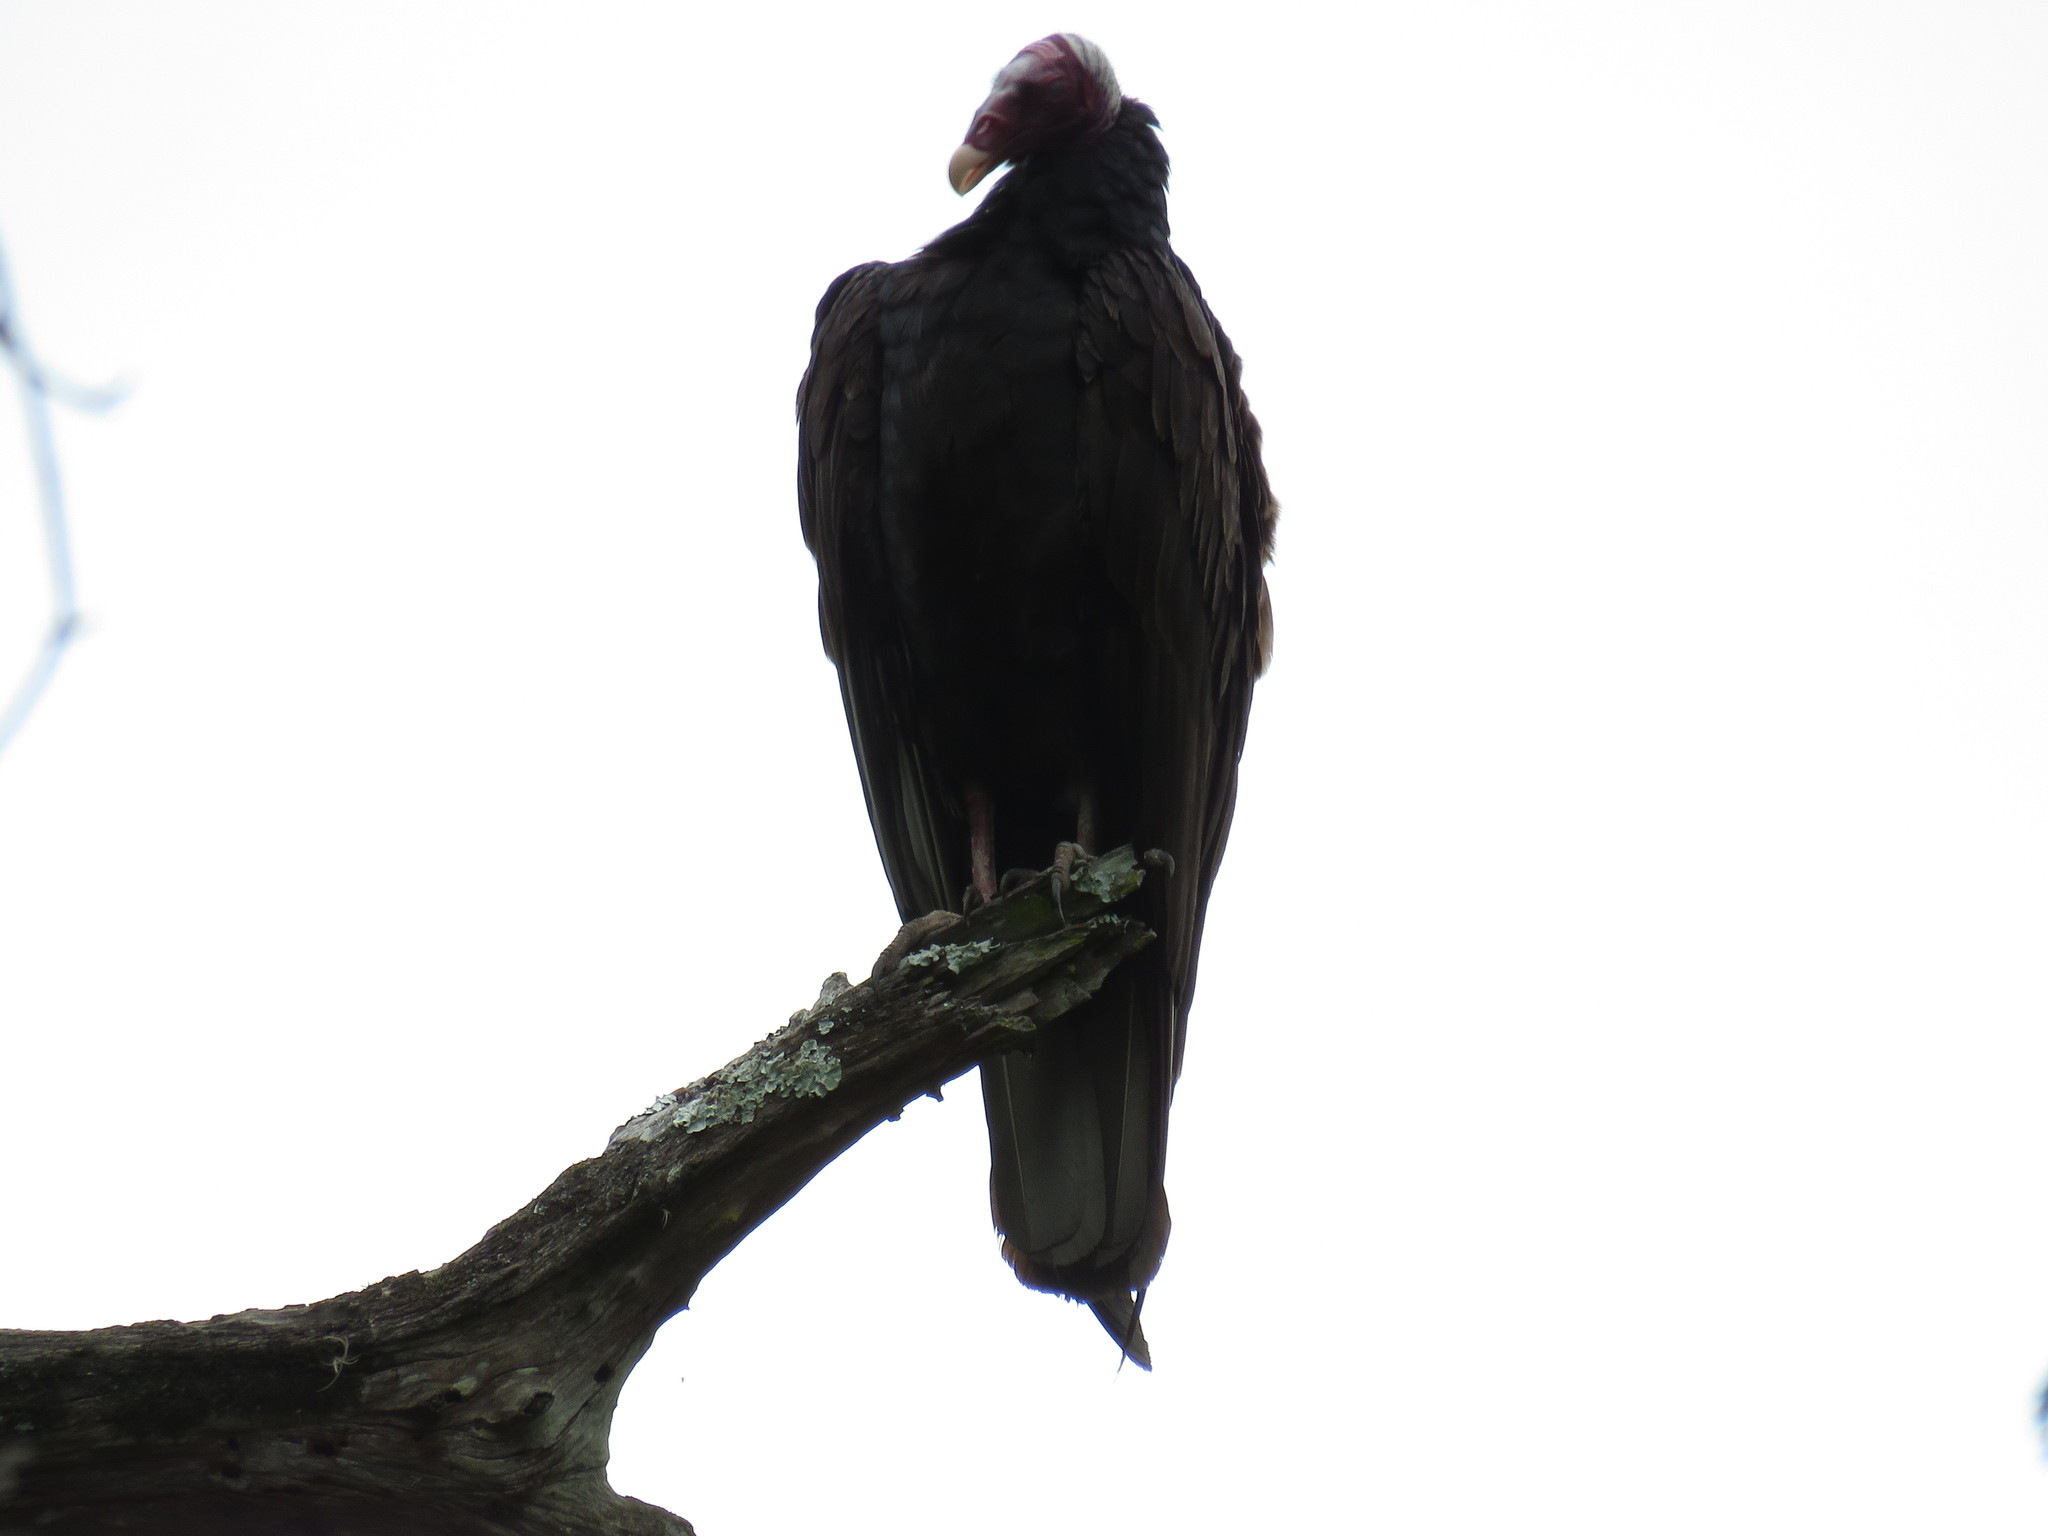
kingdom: Animalia
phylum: Chordata
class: Aves
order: Accipitriformes
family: Cathartidae
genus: Cathartes
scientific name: Cathartes aura
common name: Turkey vulture
